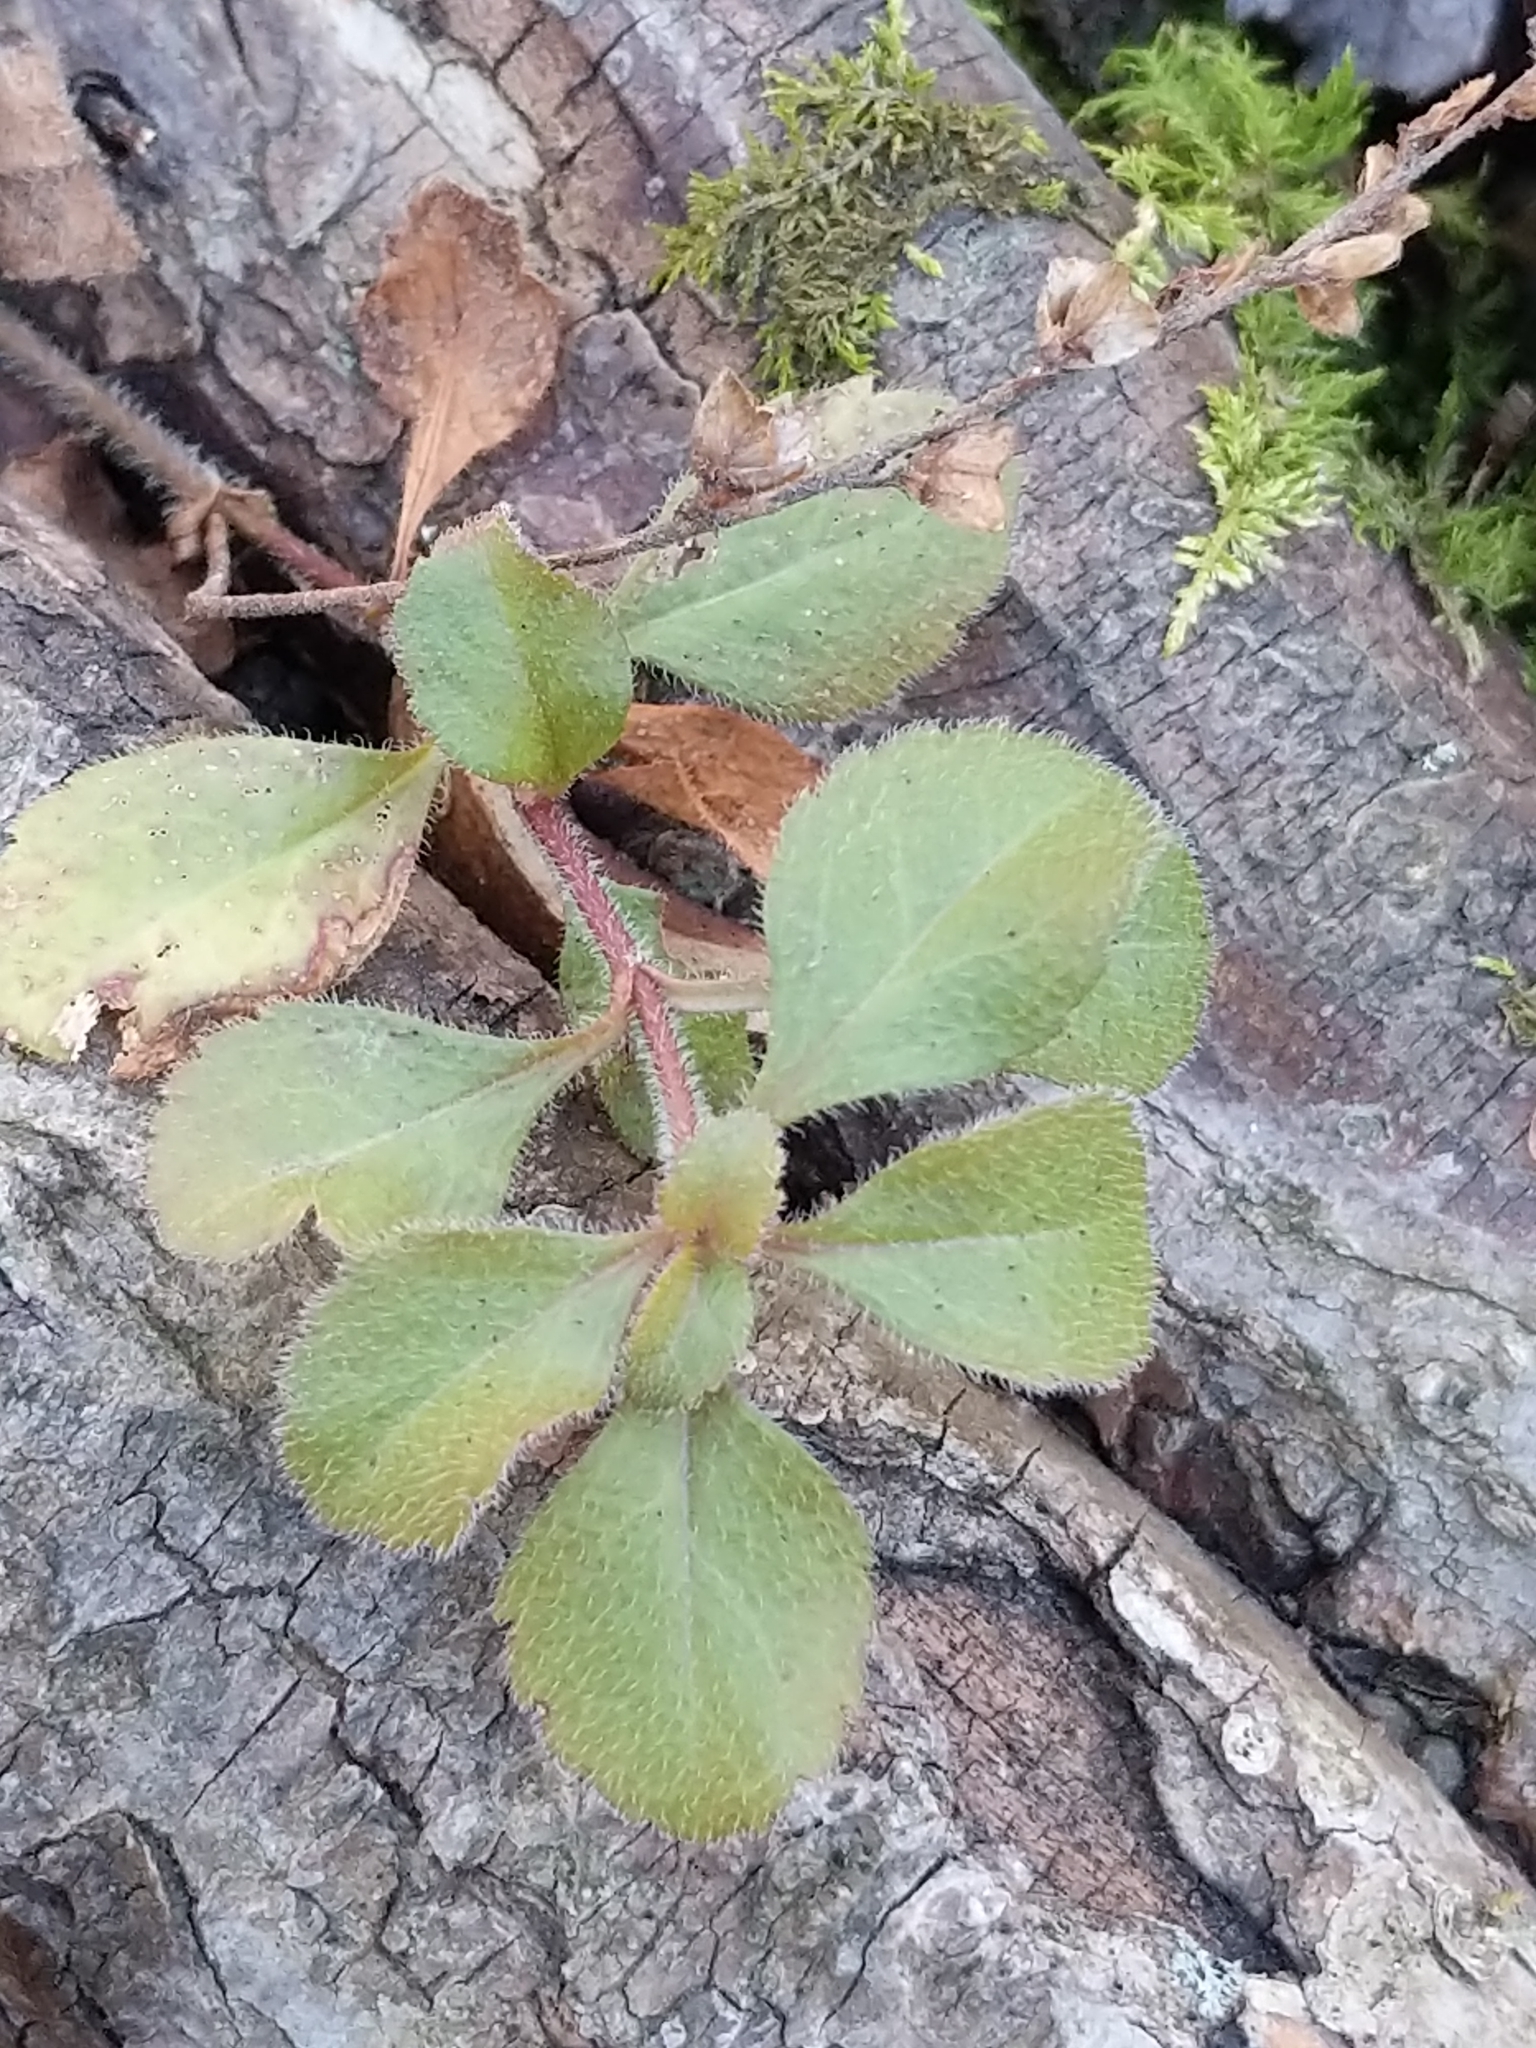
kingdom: Plantae
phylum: Tracheophyta
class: Magnoliopsida
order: Lamiales
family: Plantaginaceae
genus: Veronica
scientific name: Veronica officinalis
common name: Common speedwell
